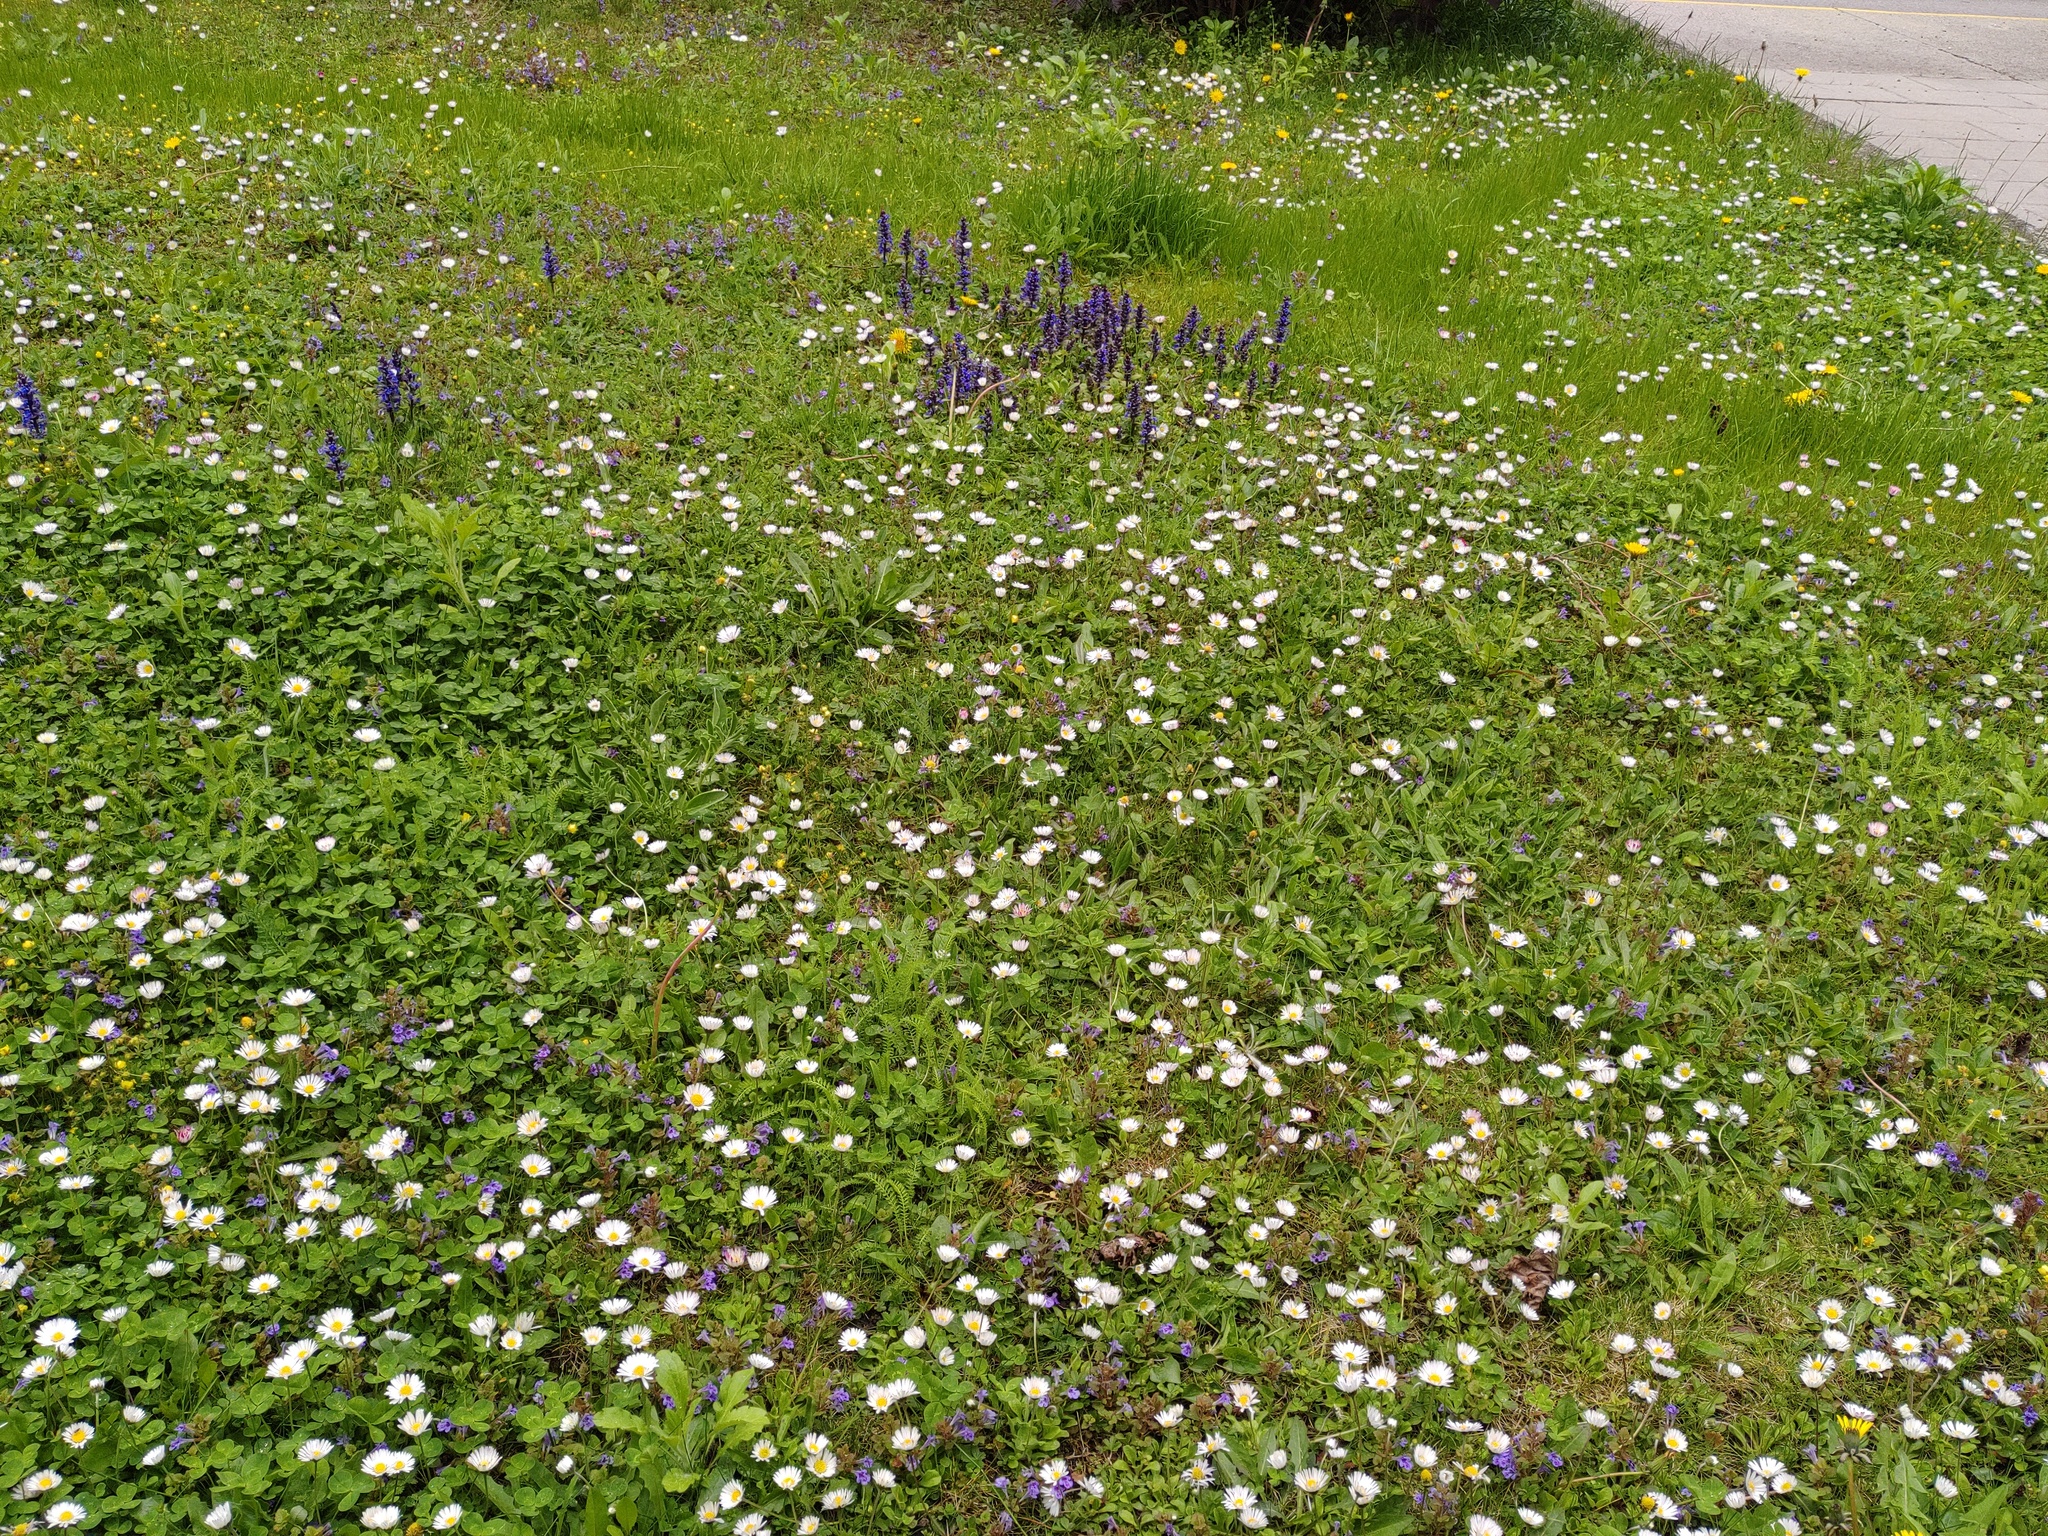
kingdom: Plantae
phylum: Tracheophyta
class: Magnoliopsida
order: Lamiales
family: Lamiaceae
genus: Ajuga
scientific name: Ajuga reptans
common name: Bugle
